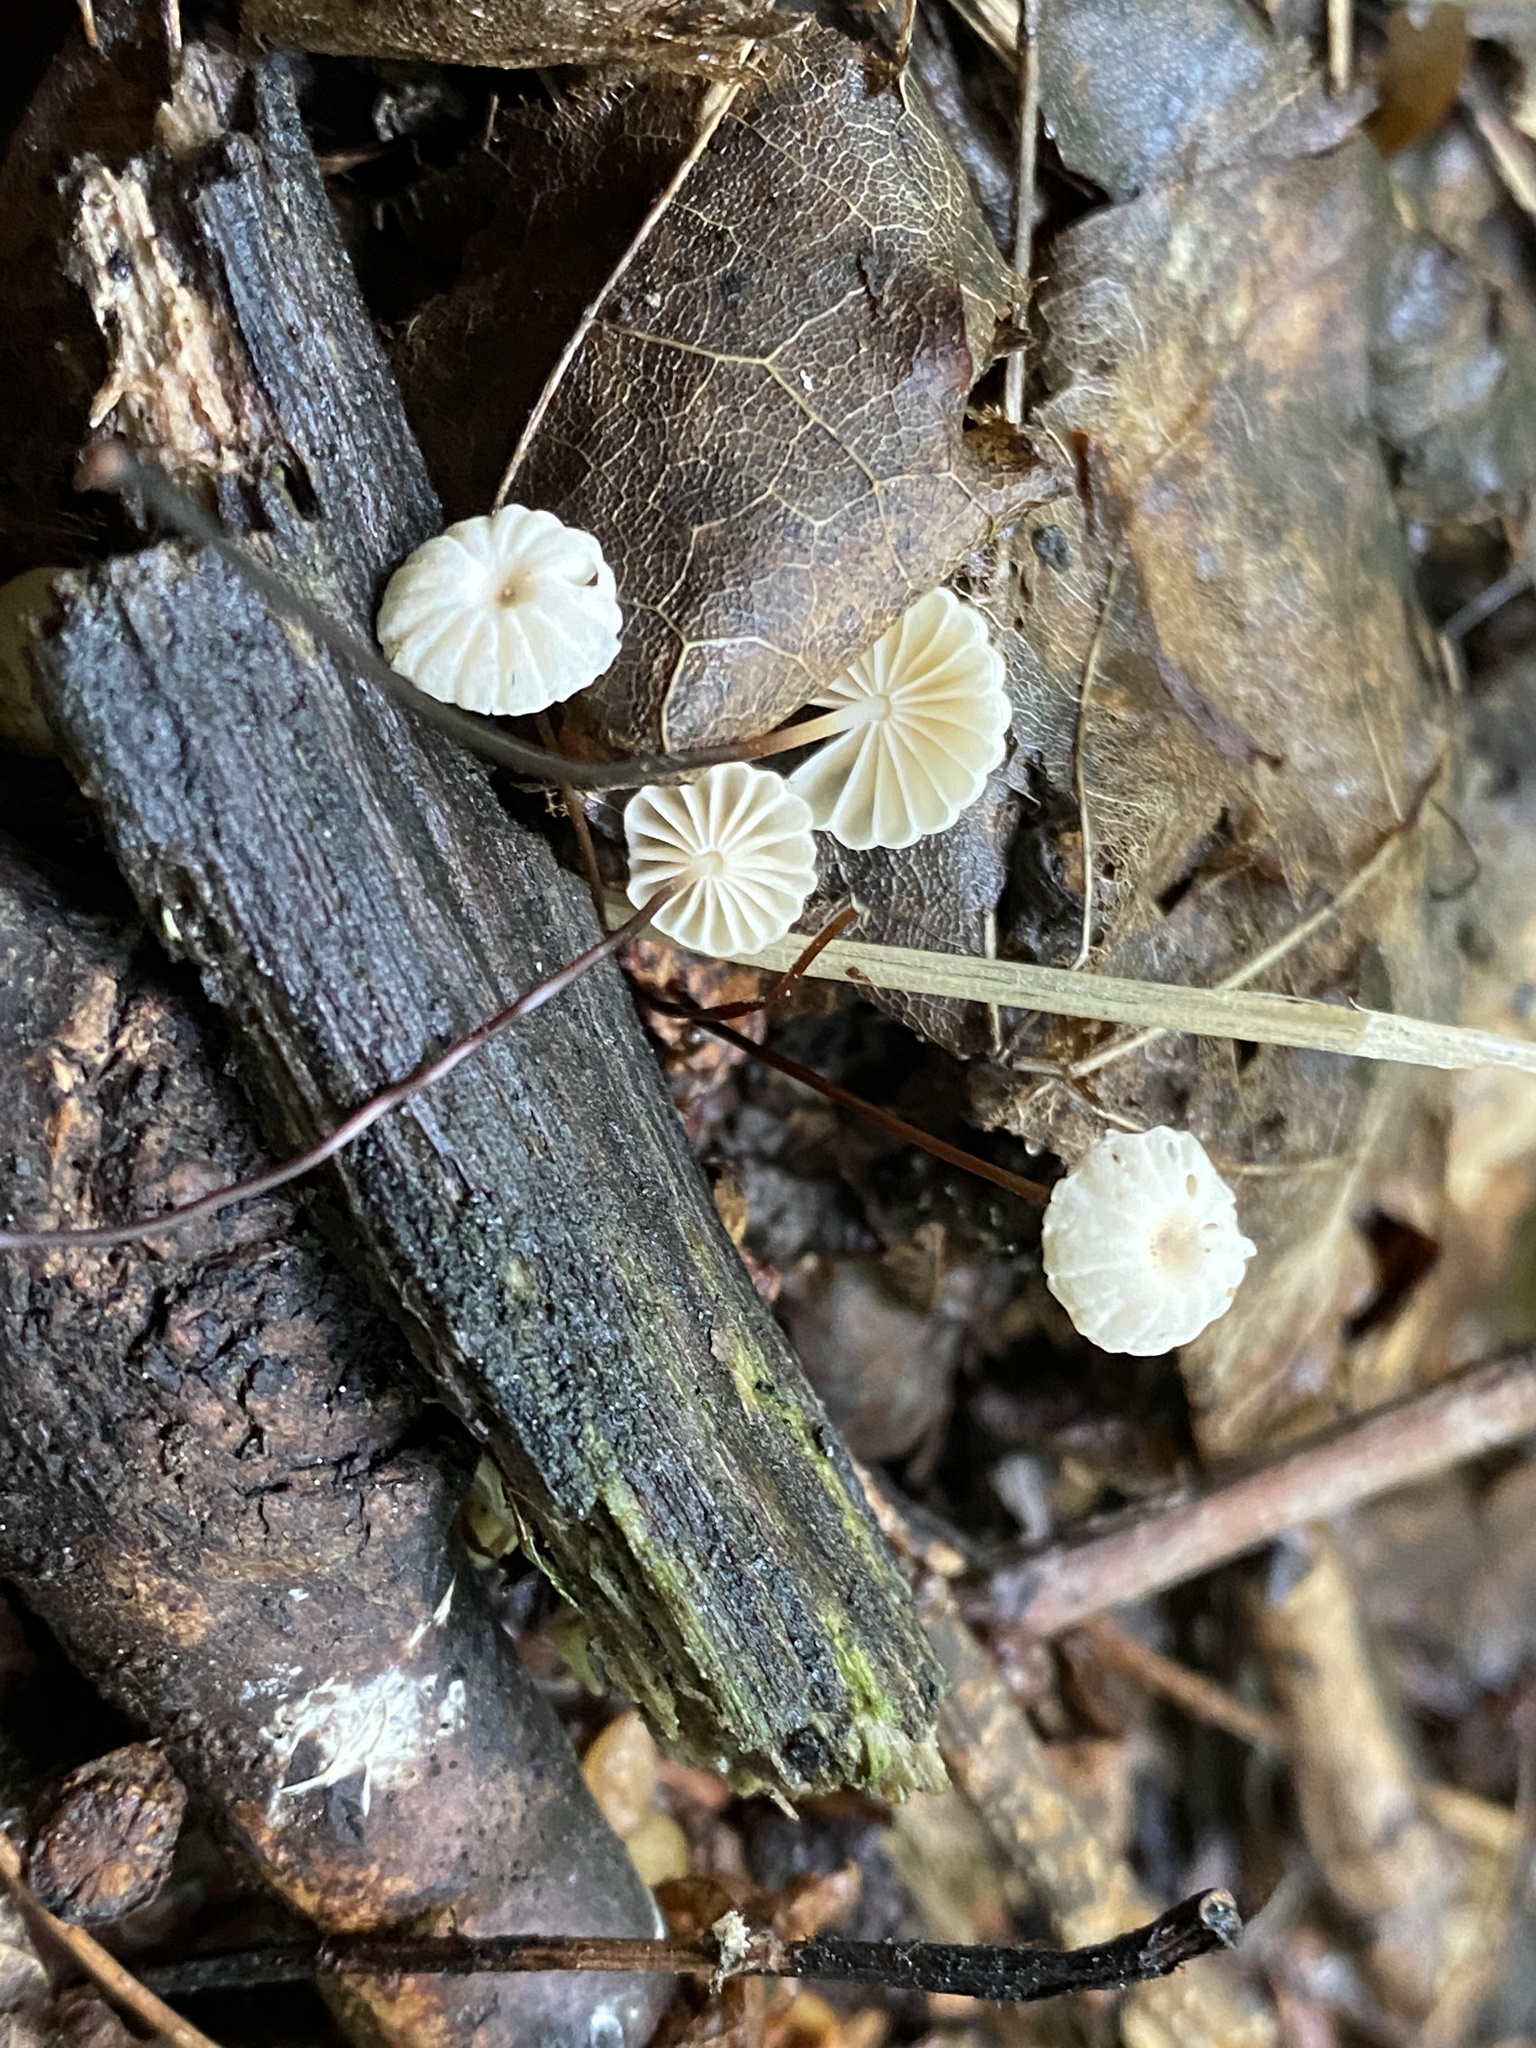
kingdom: Fungi
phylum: Basidiomycota
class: Agaricomycetes
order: Agaricales
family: Marasmiaceae
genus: Marasmius
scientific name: Marasmius rotula
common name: Collared parachute
